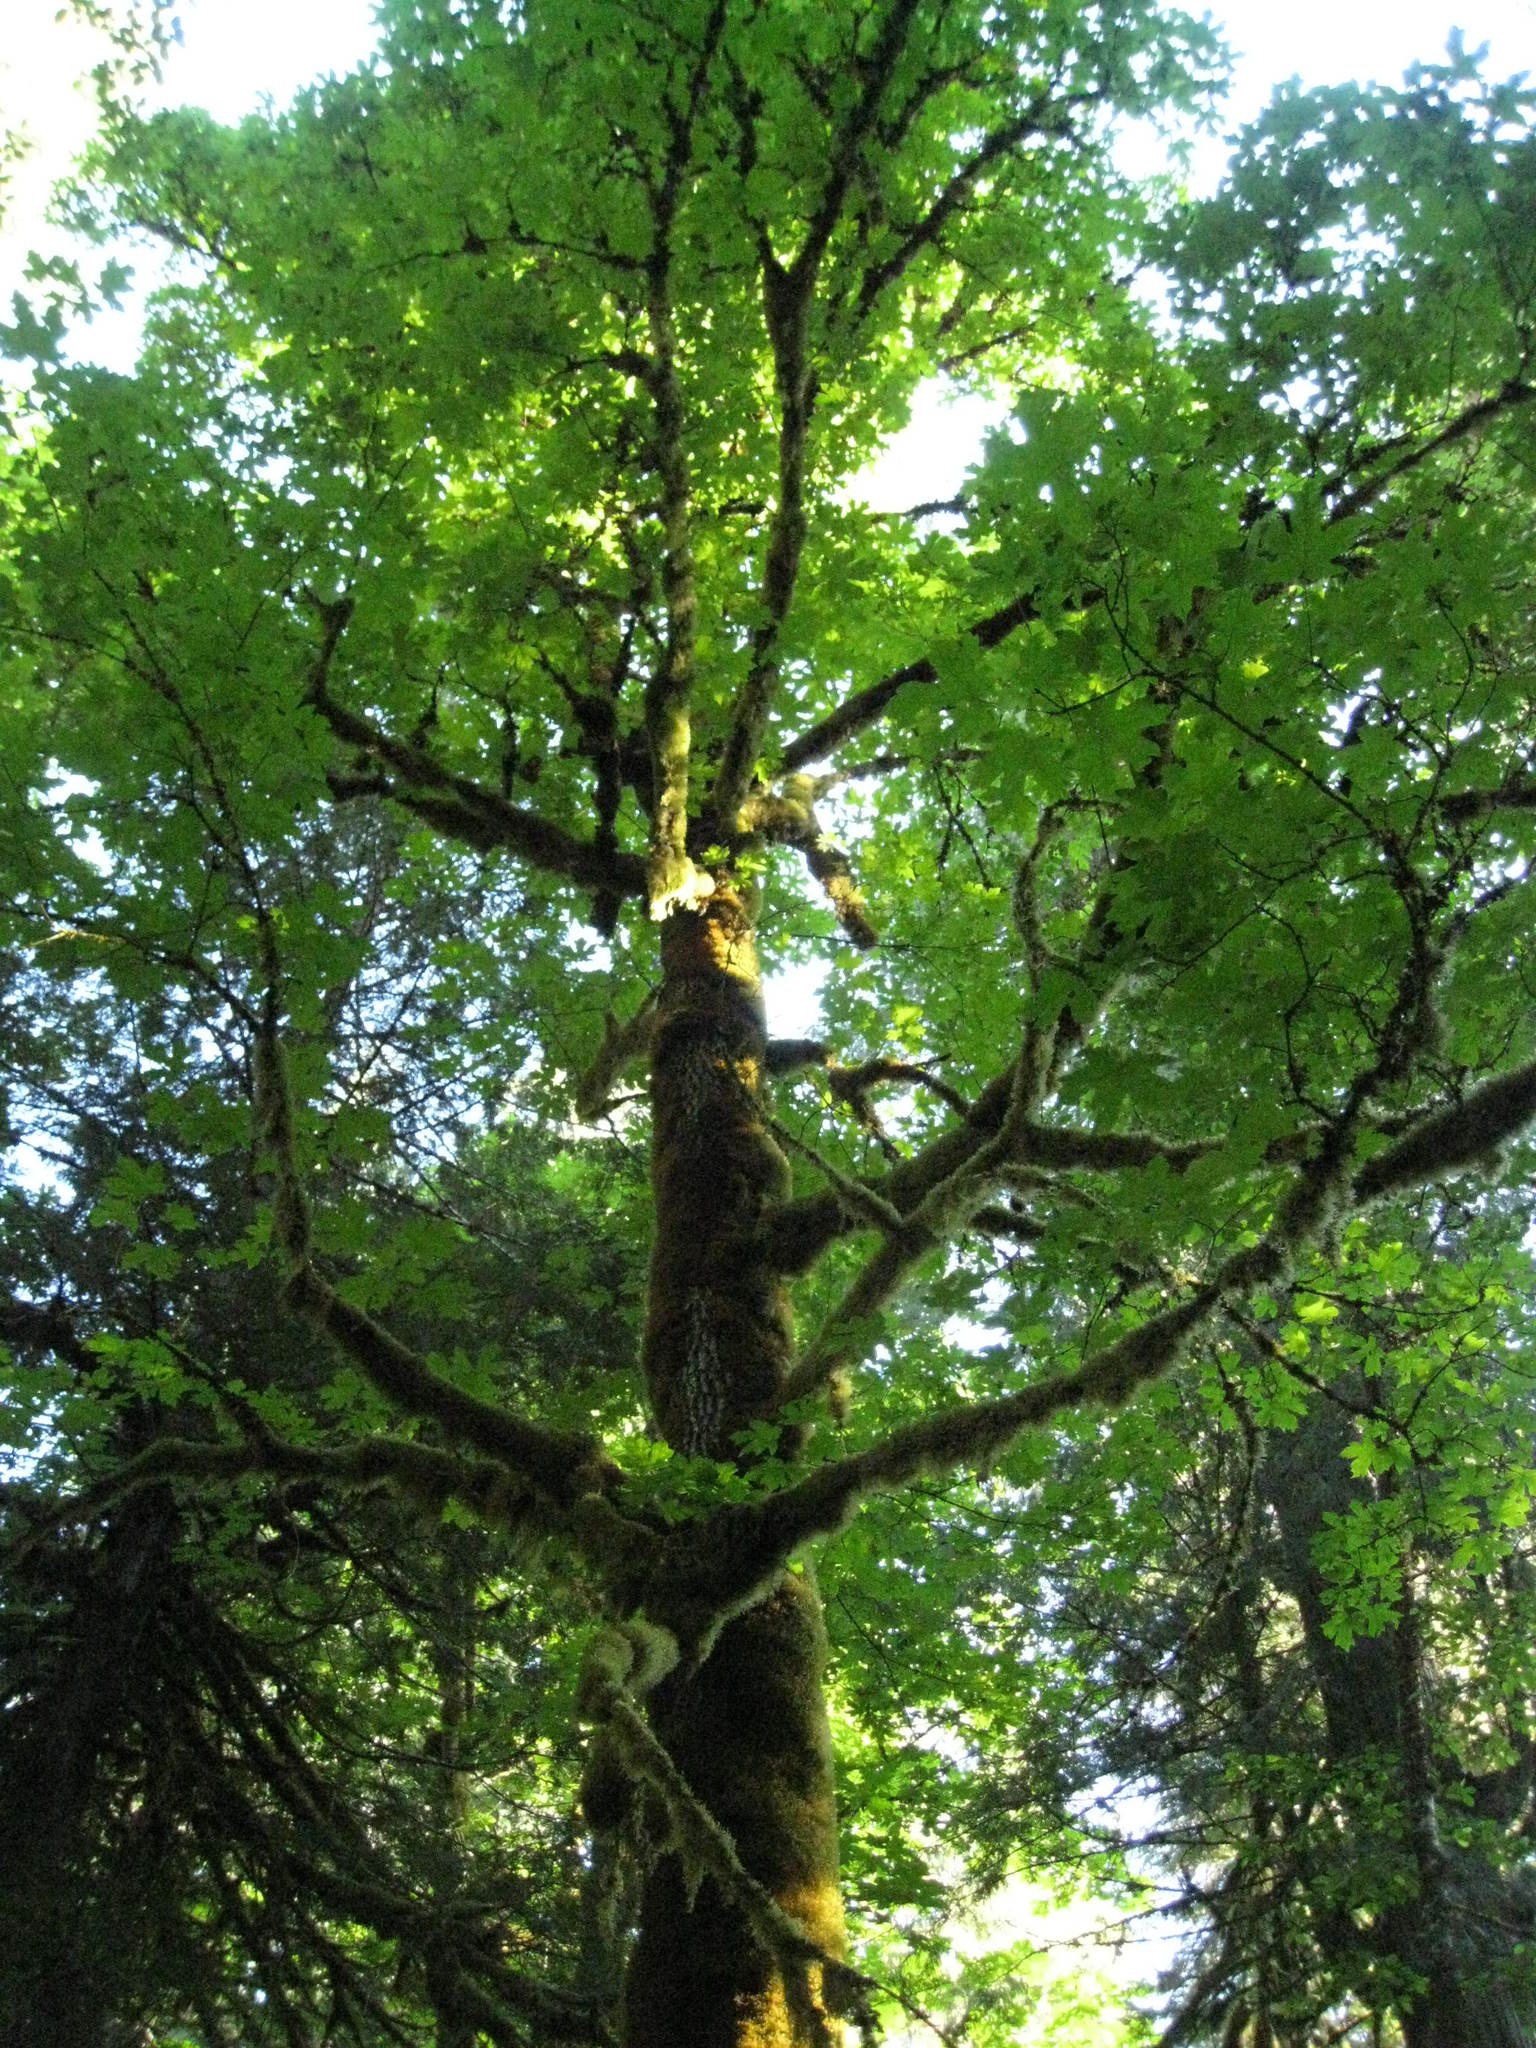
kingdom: Plantae
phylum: Tracheophyta
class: Magnoliopsida
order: Sapindales
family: Sapindaceae
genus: Acer
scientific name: Acer macrophyllum
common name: Oregon maple
